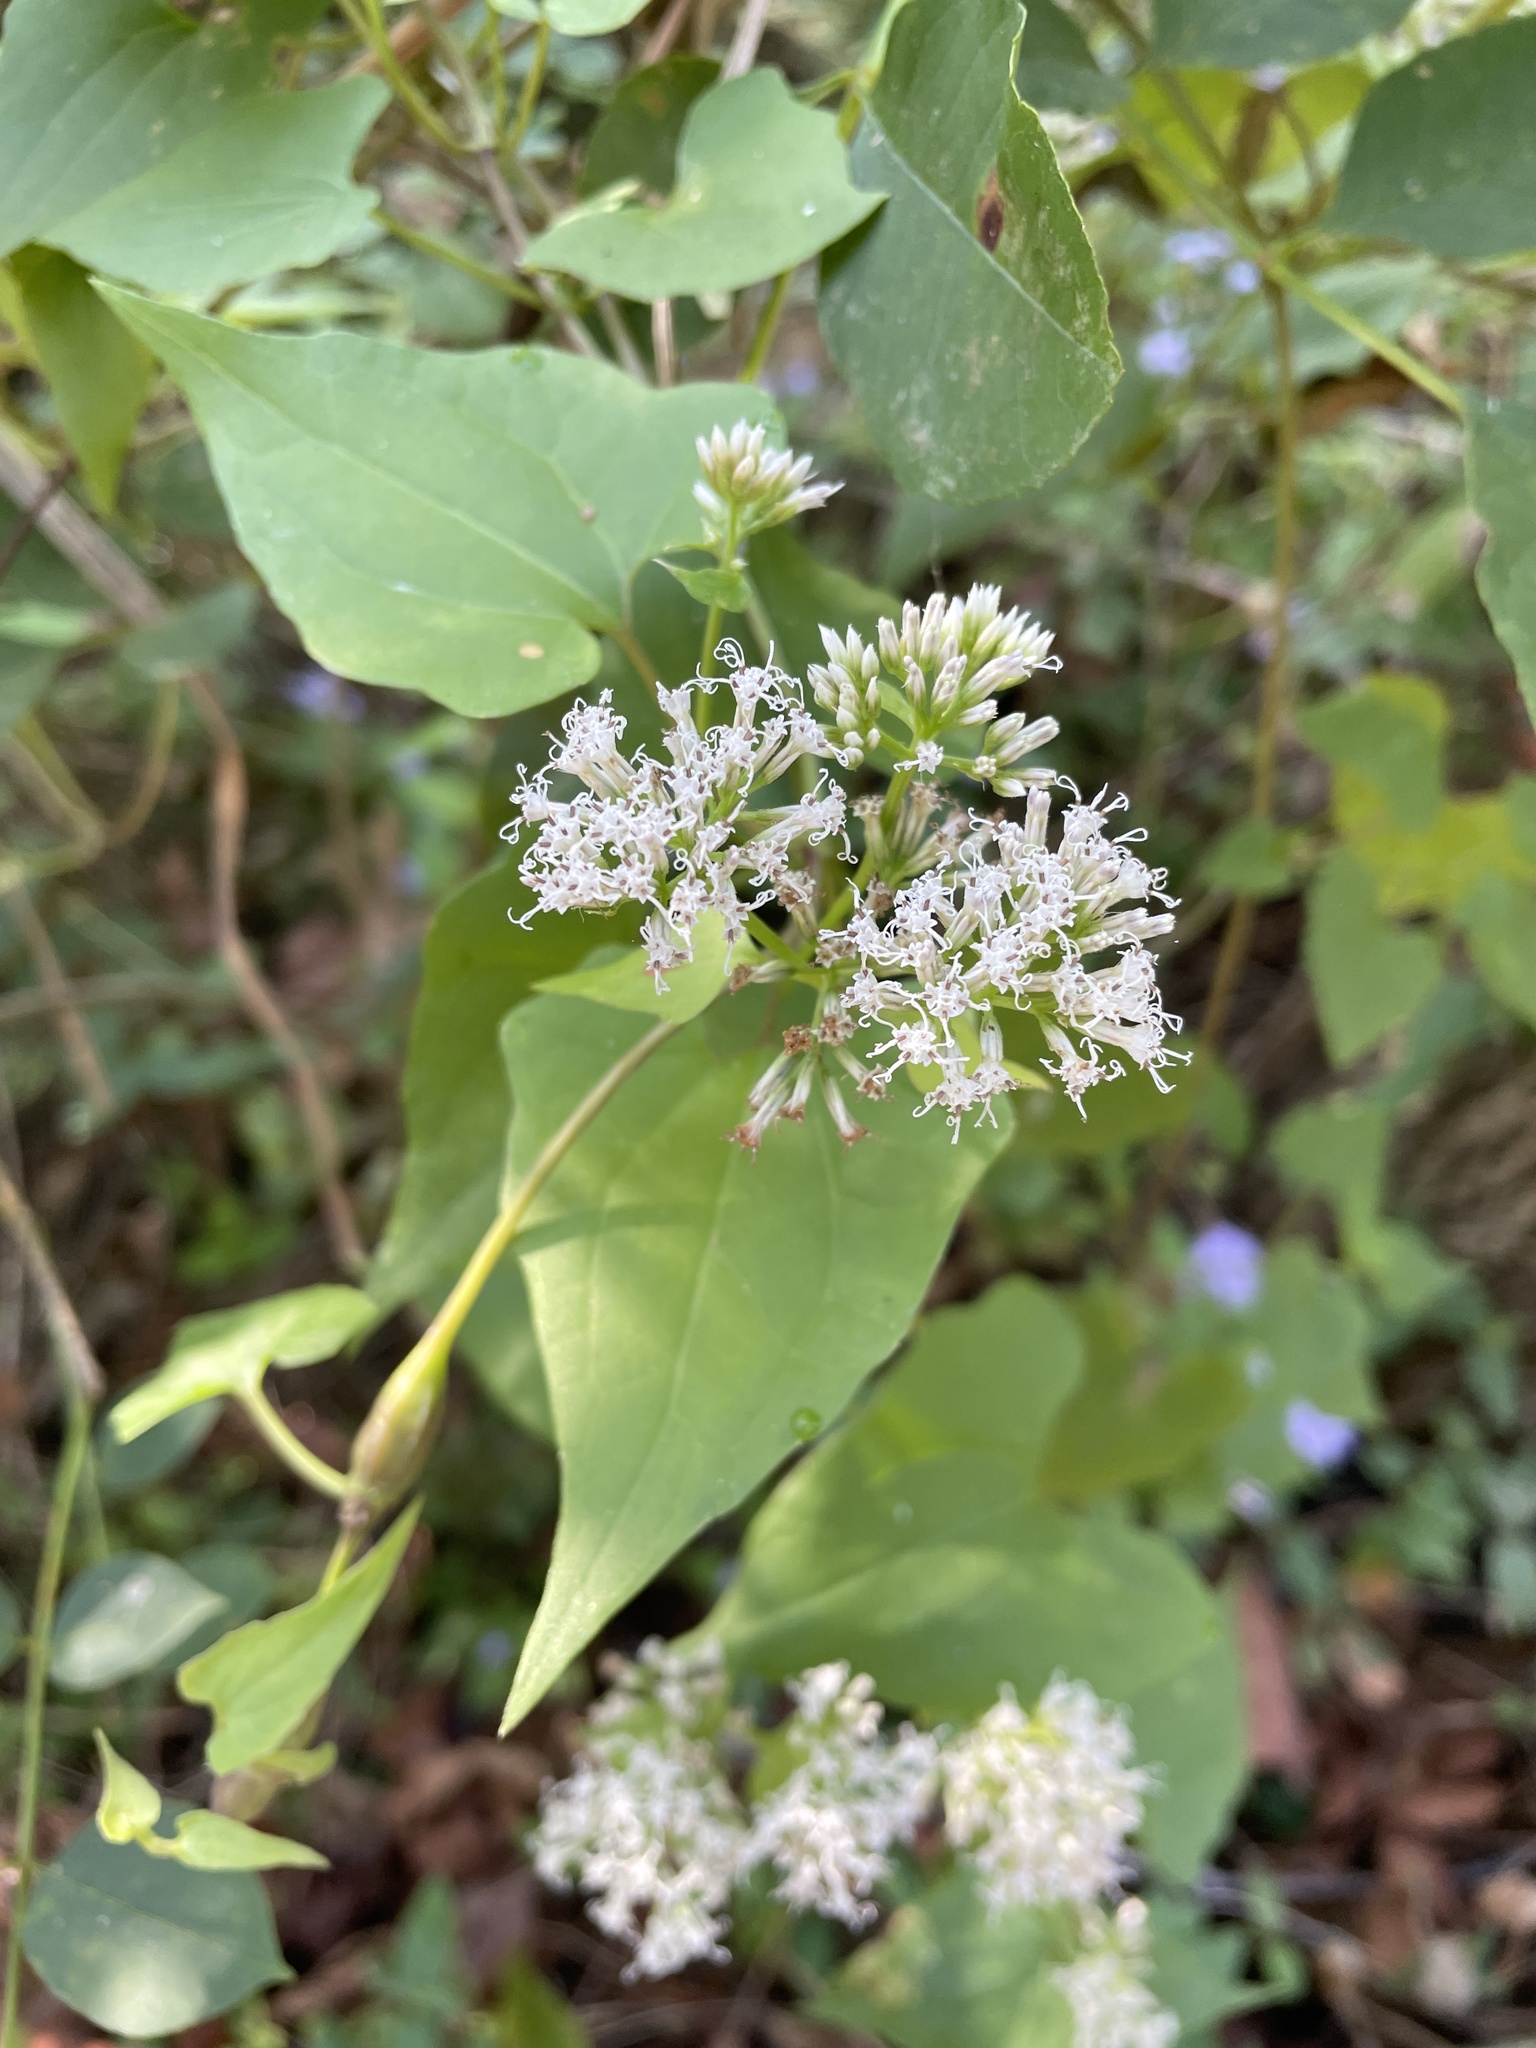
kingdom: Plantae
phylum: Tracheophyta
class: Magnoliopsida
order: Asterales
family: Asteraceae
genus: Mikania
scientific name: Mikania scandens
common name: Climbing hempvine
